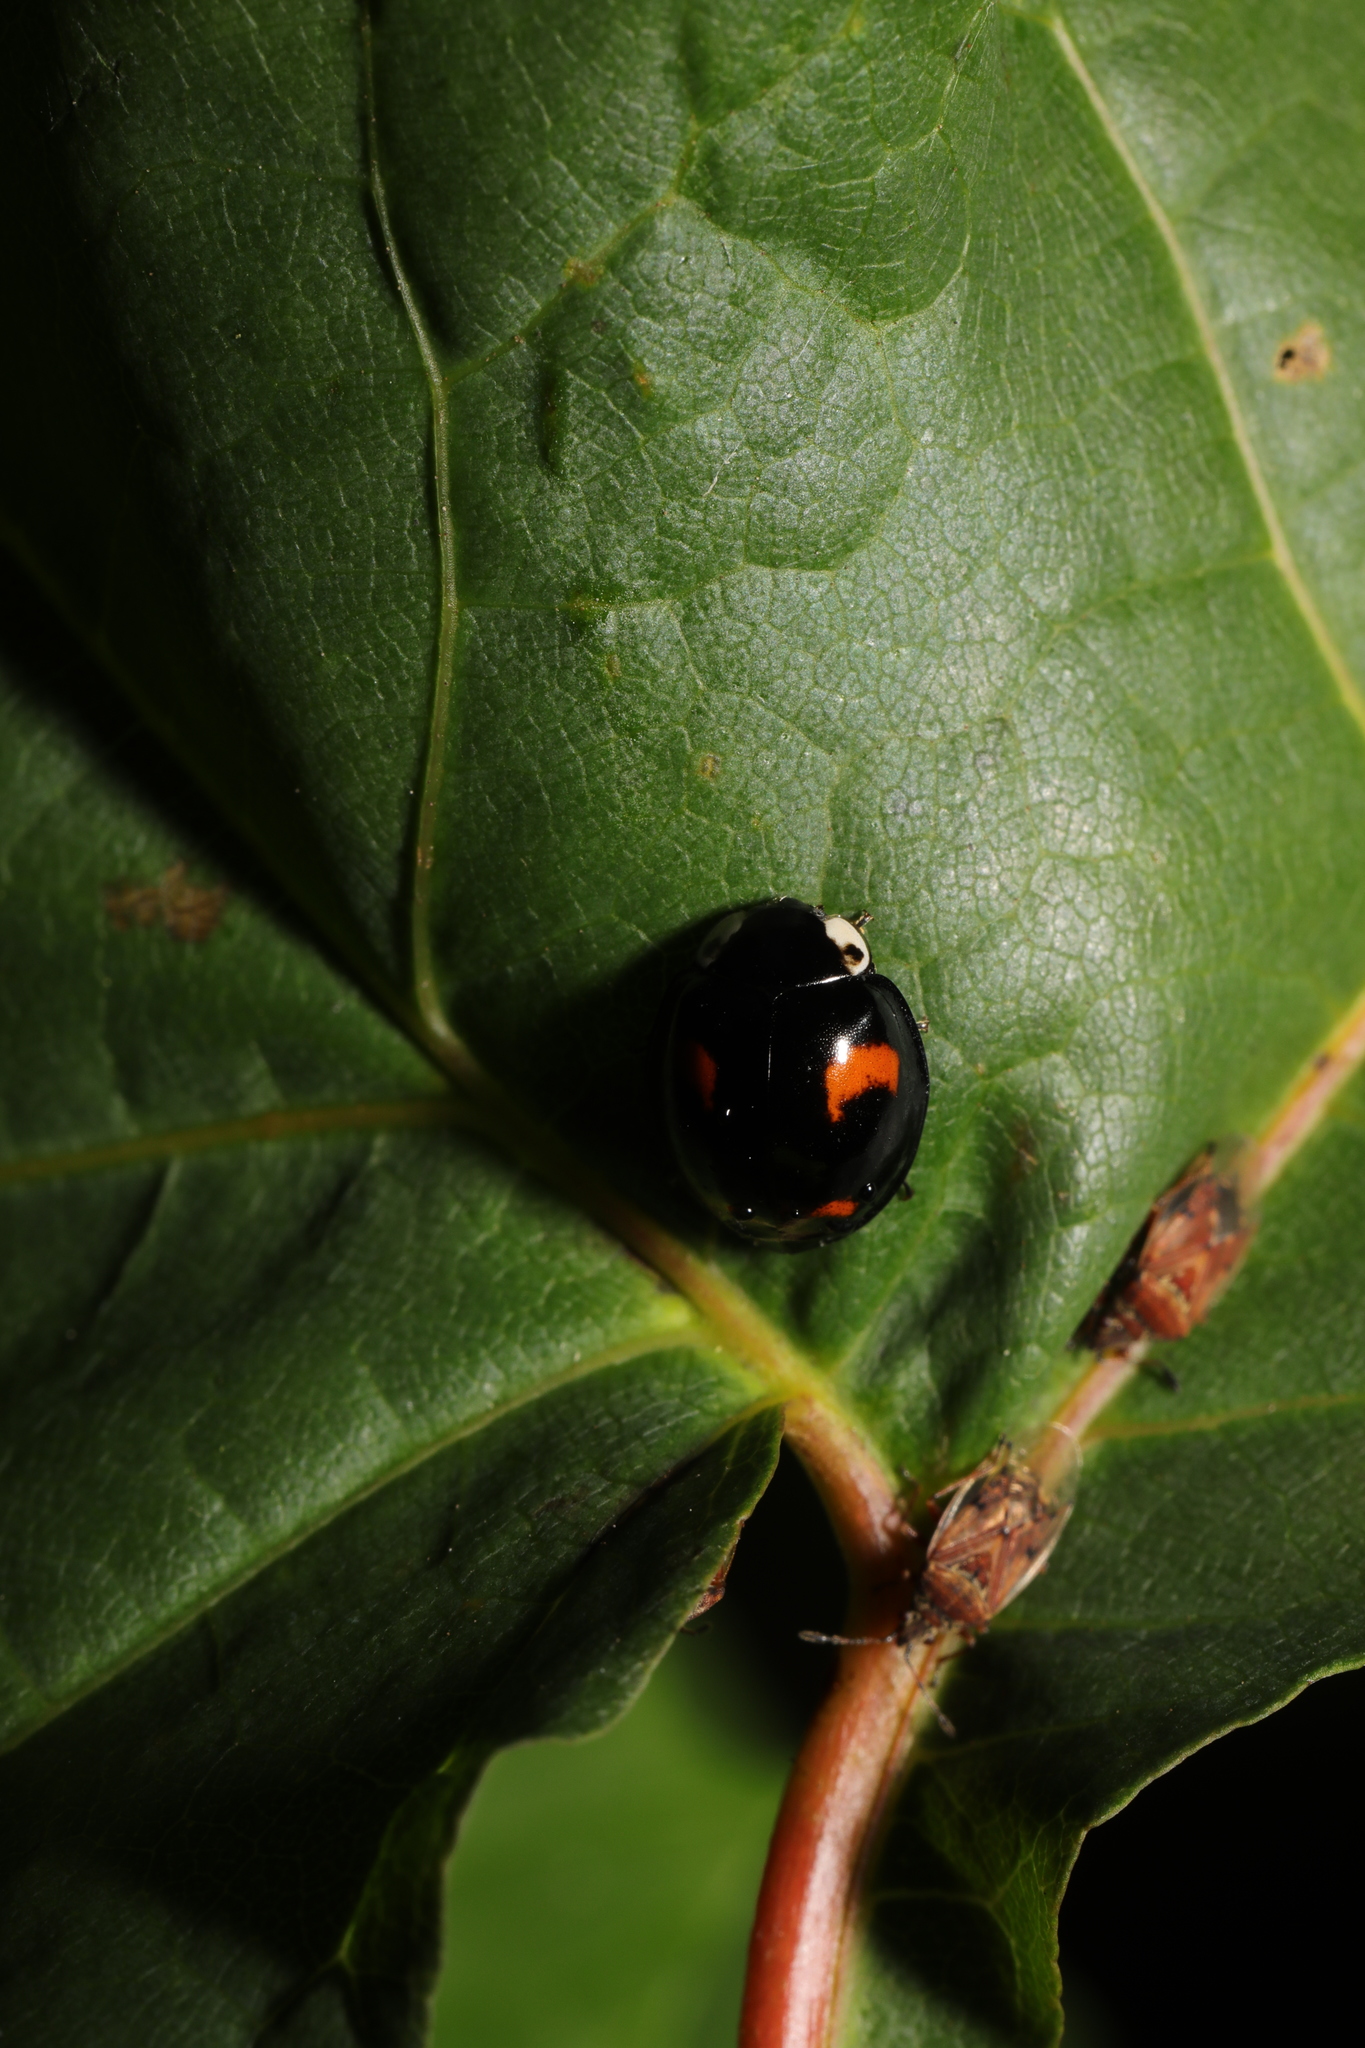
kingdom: Animalia
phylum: Arthropoda
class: Insecta
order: Coleoptera
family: Coccinellidae
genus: Harmonia
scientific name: Harmonia axyridis
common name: Harlequin ladybird
